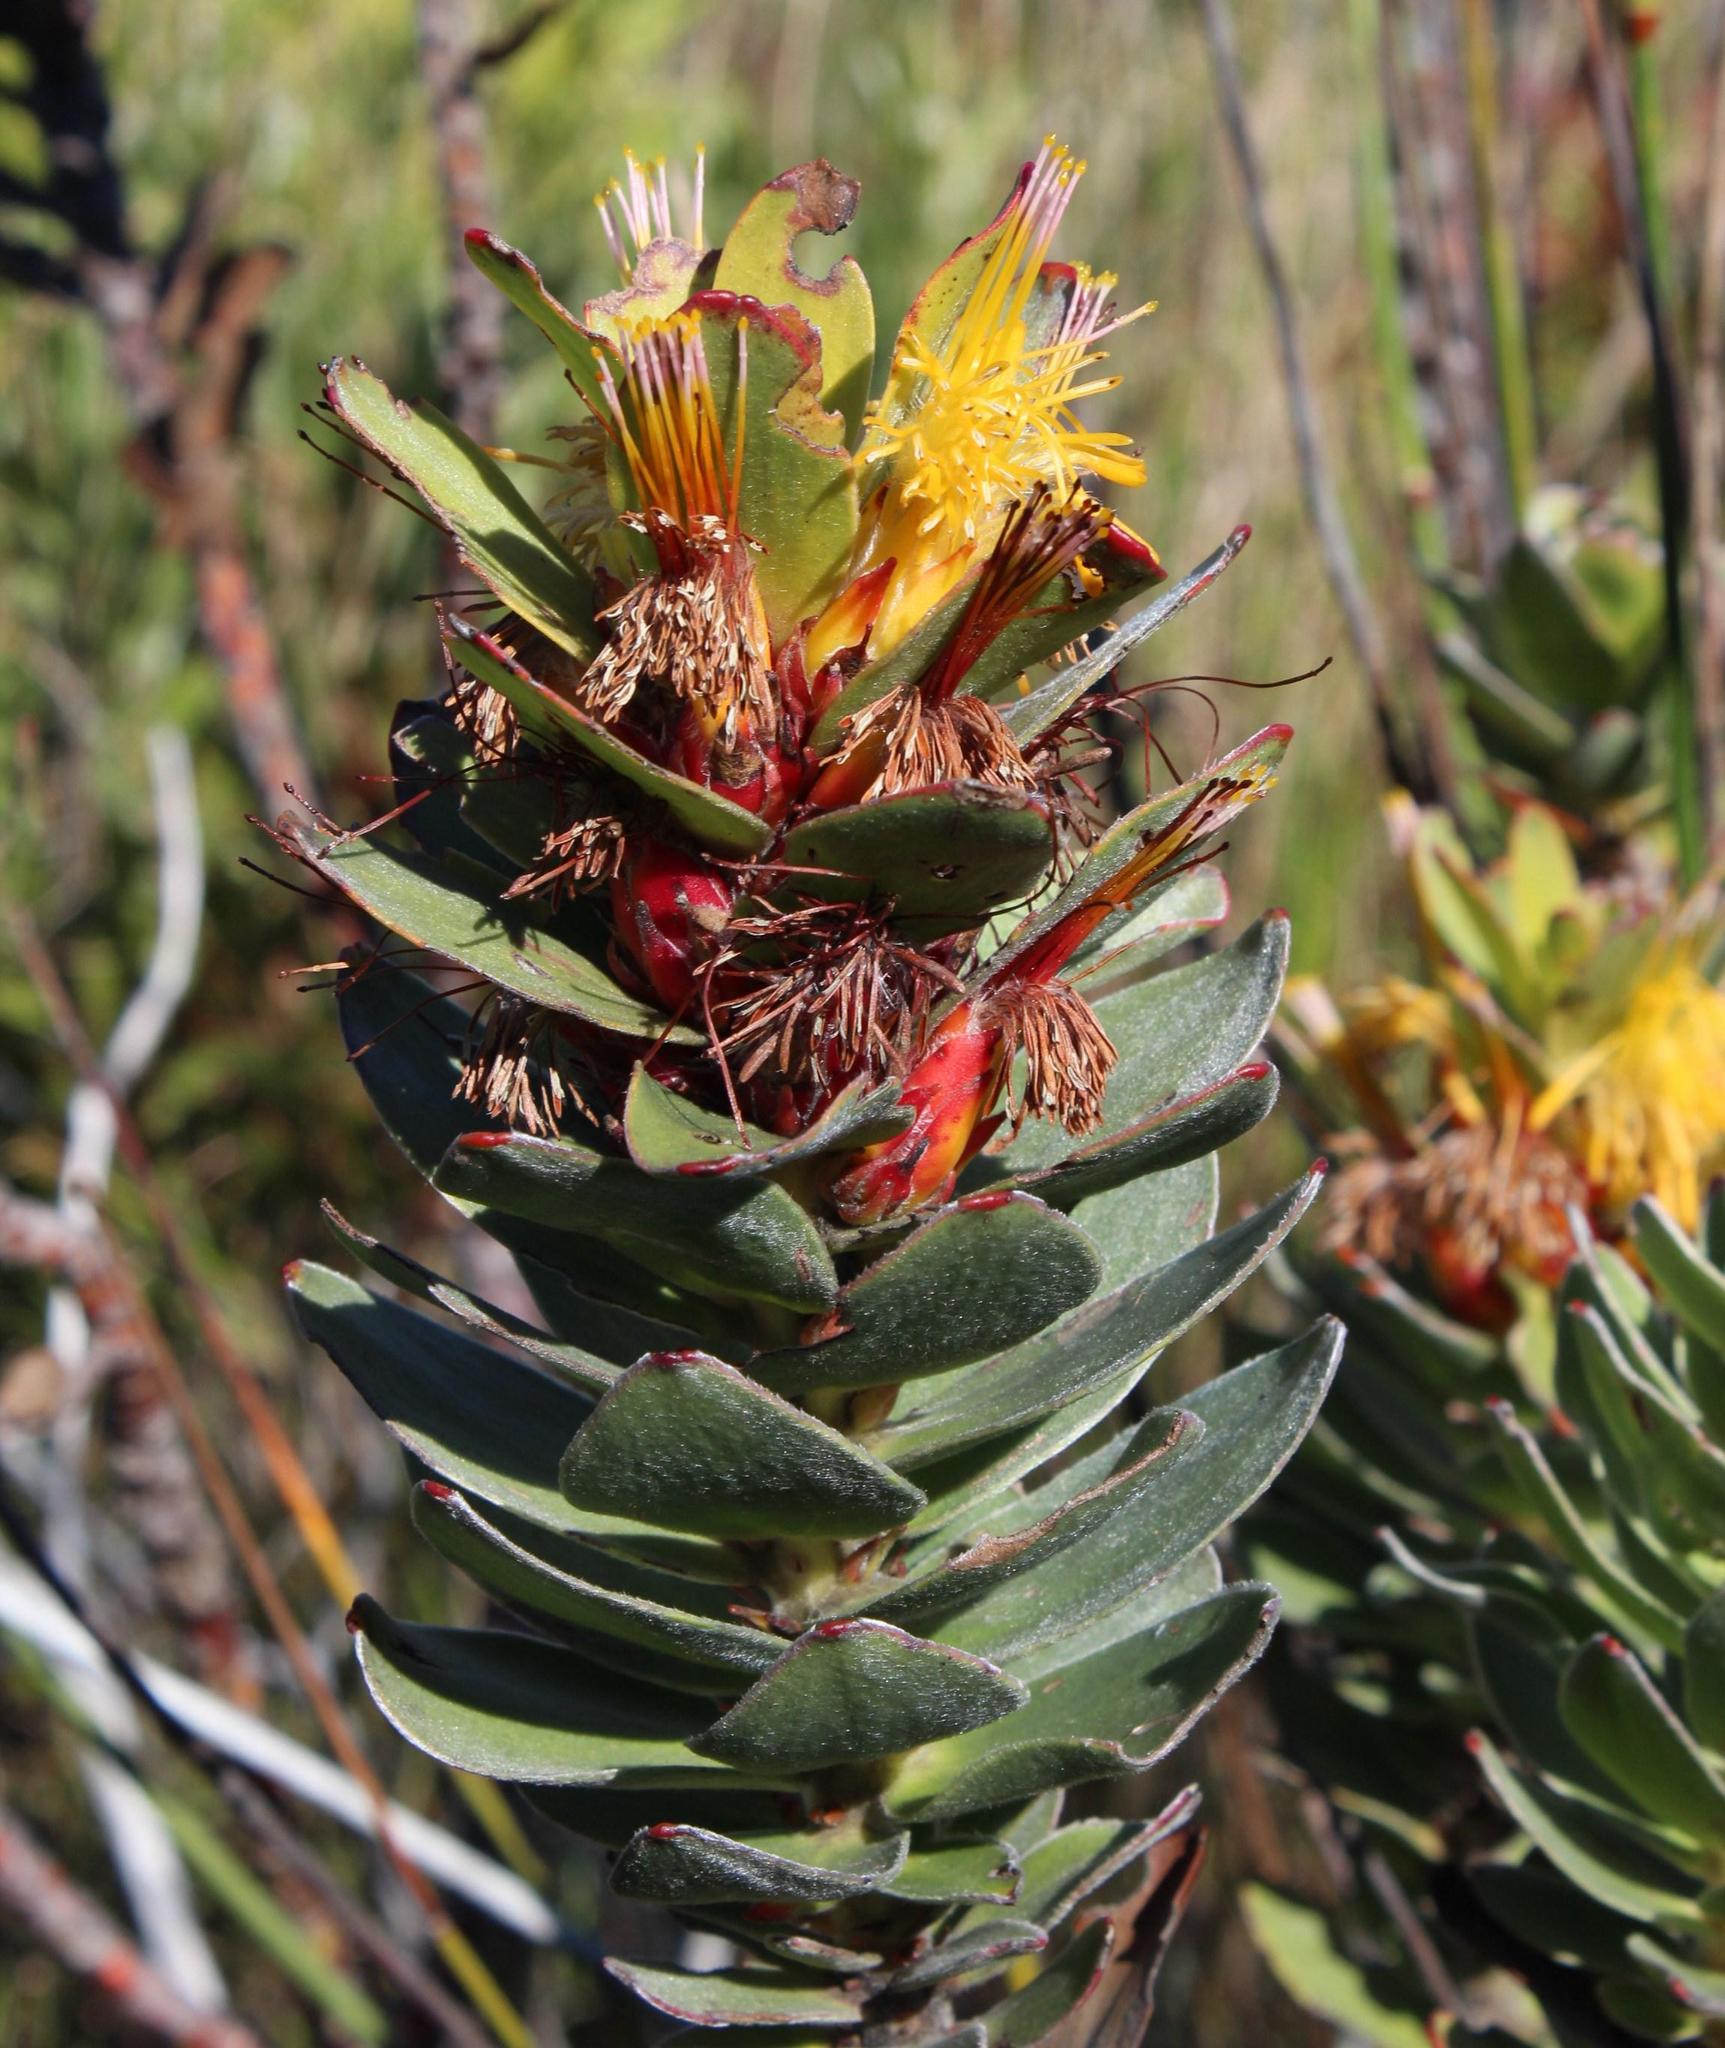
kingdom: Plantae
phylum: Tracheophyta
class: Magnoliopsida
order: Proteales
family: Proteaceae
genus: Mimetes
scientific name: Mimetes saxatilis
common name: Limestone pagoda
